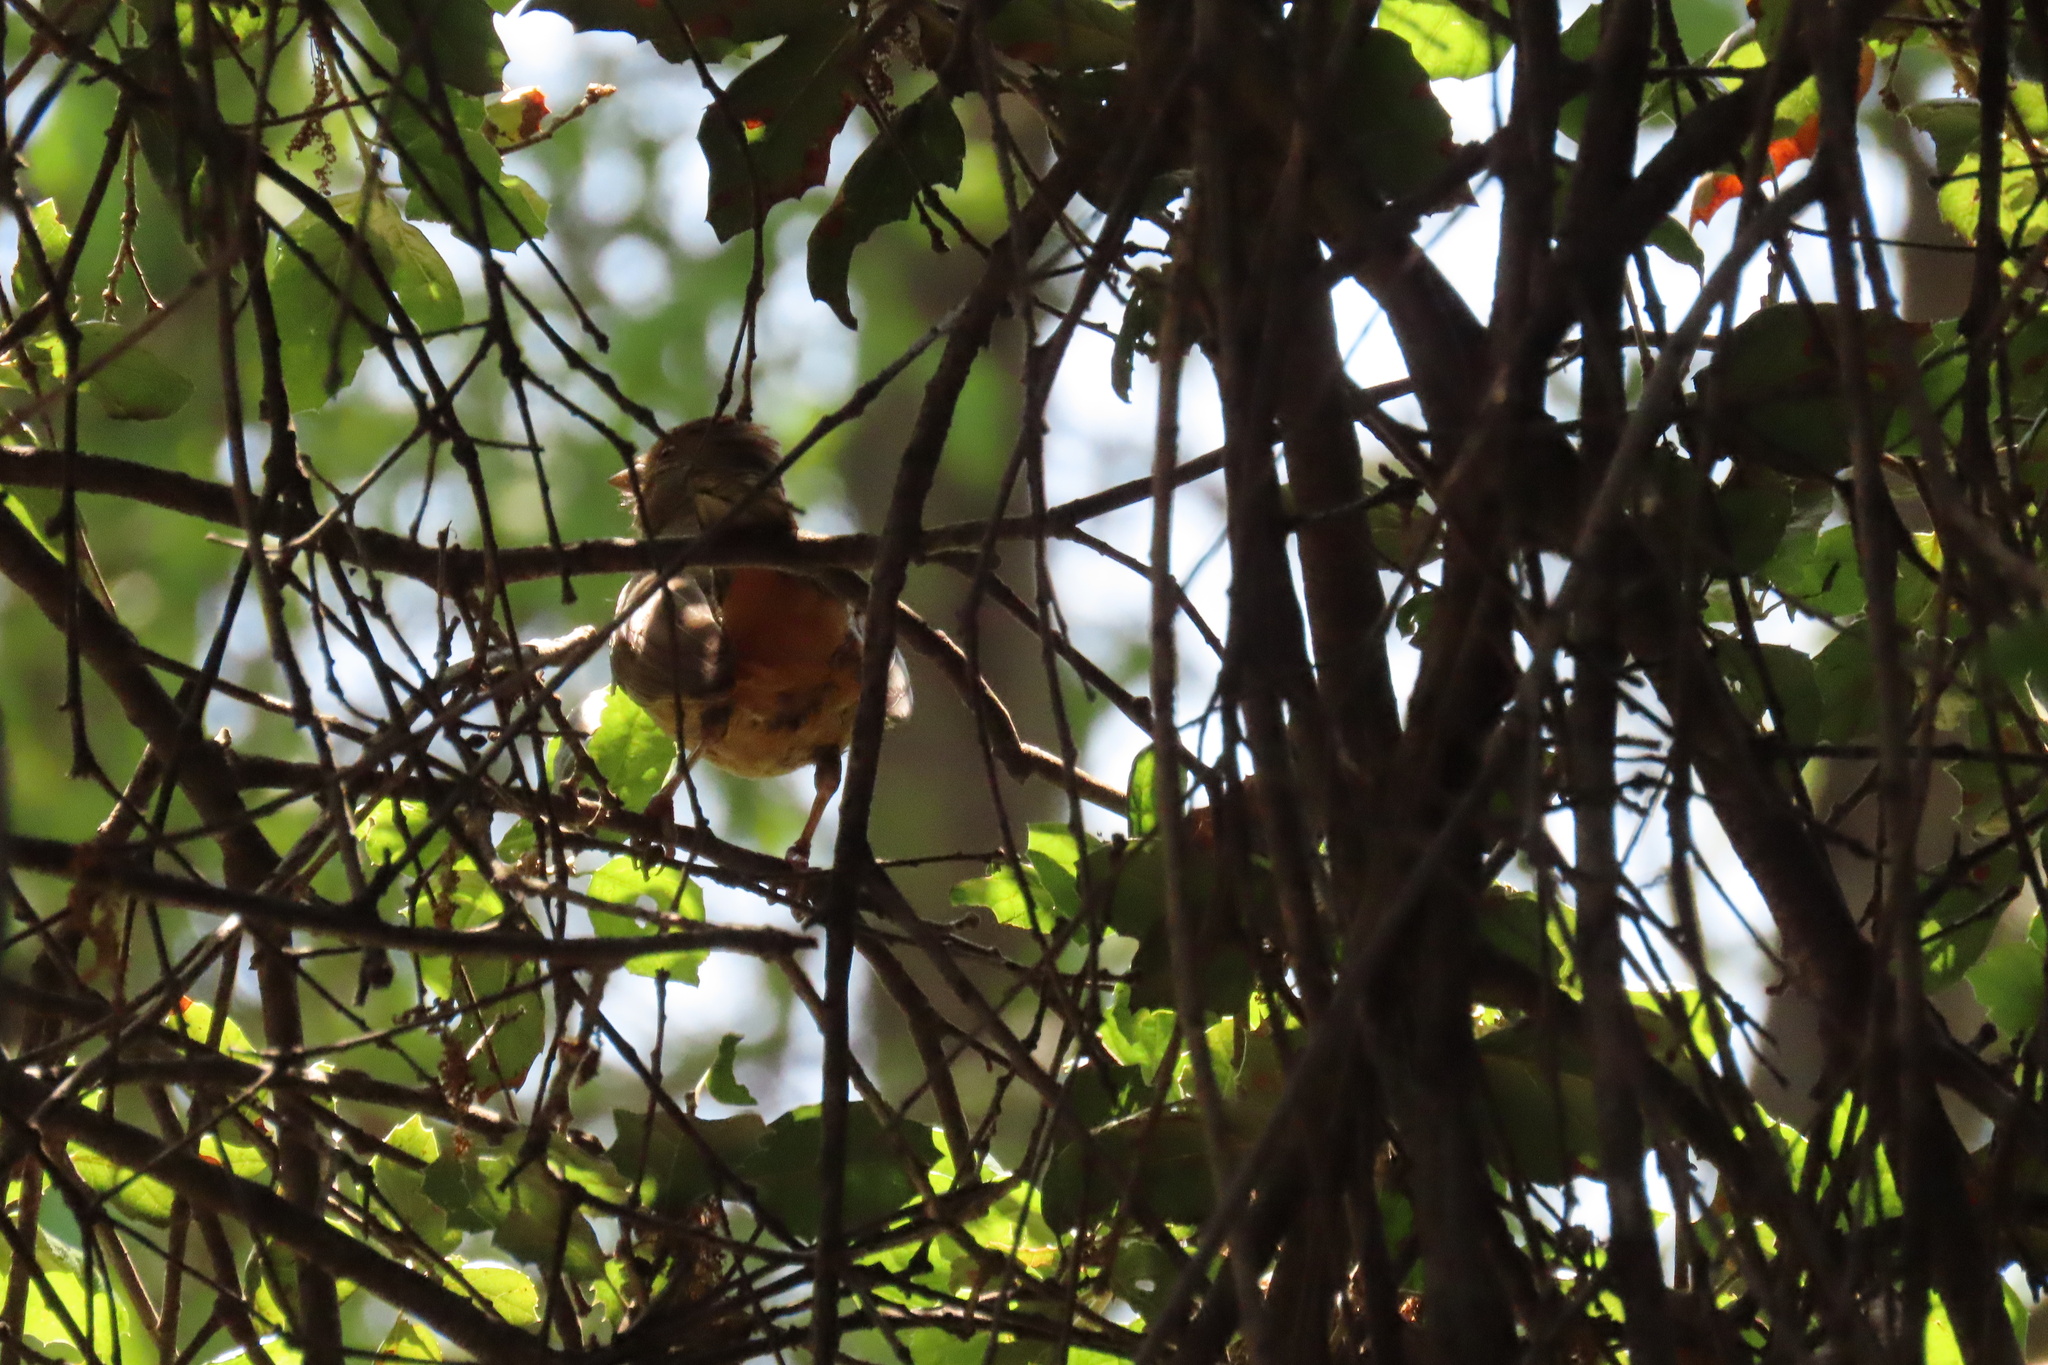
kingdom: Animalia
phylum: Chordata
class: Aves
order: Passeriformes
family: Passerellidae
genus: Melozone
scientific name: Melozone crissalis
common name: California towhee
